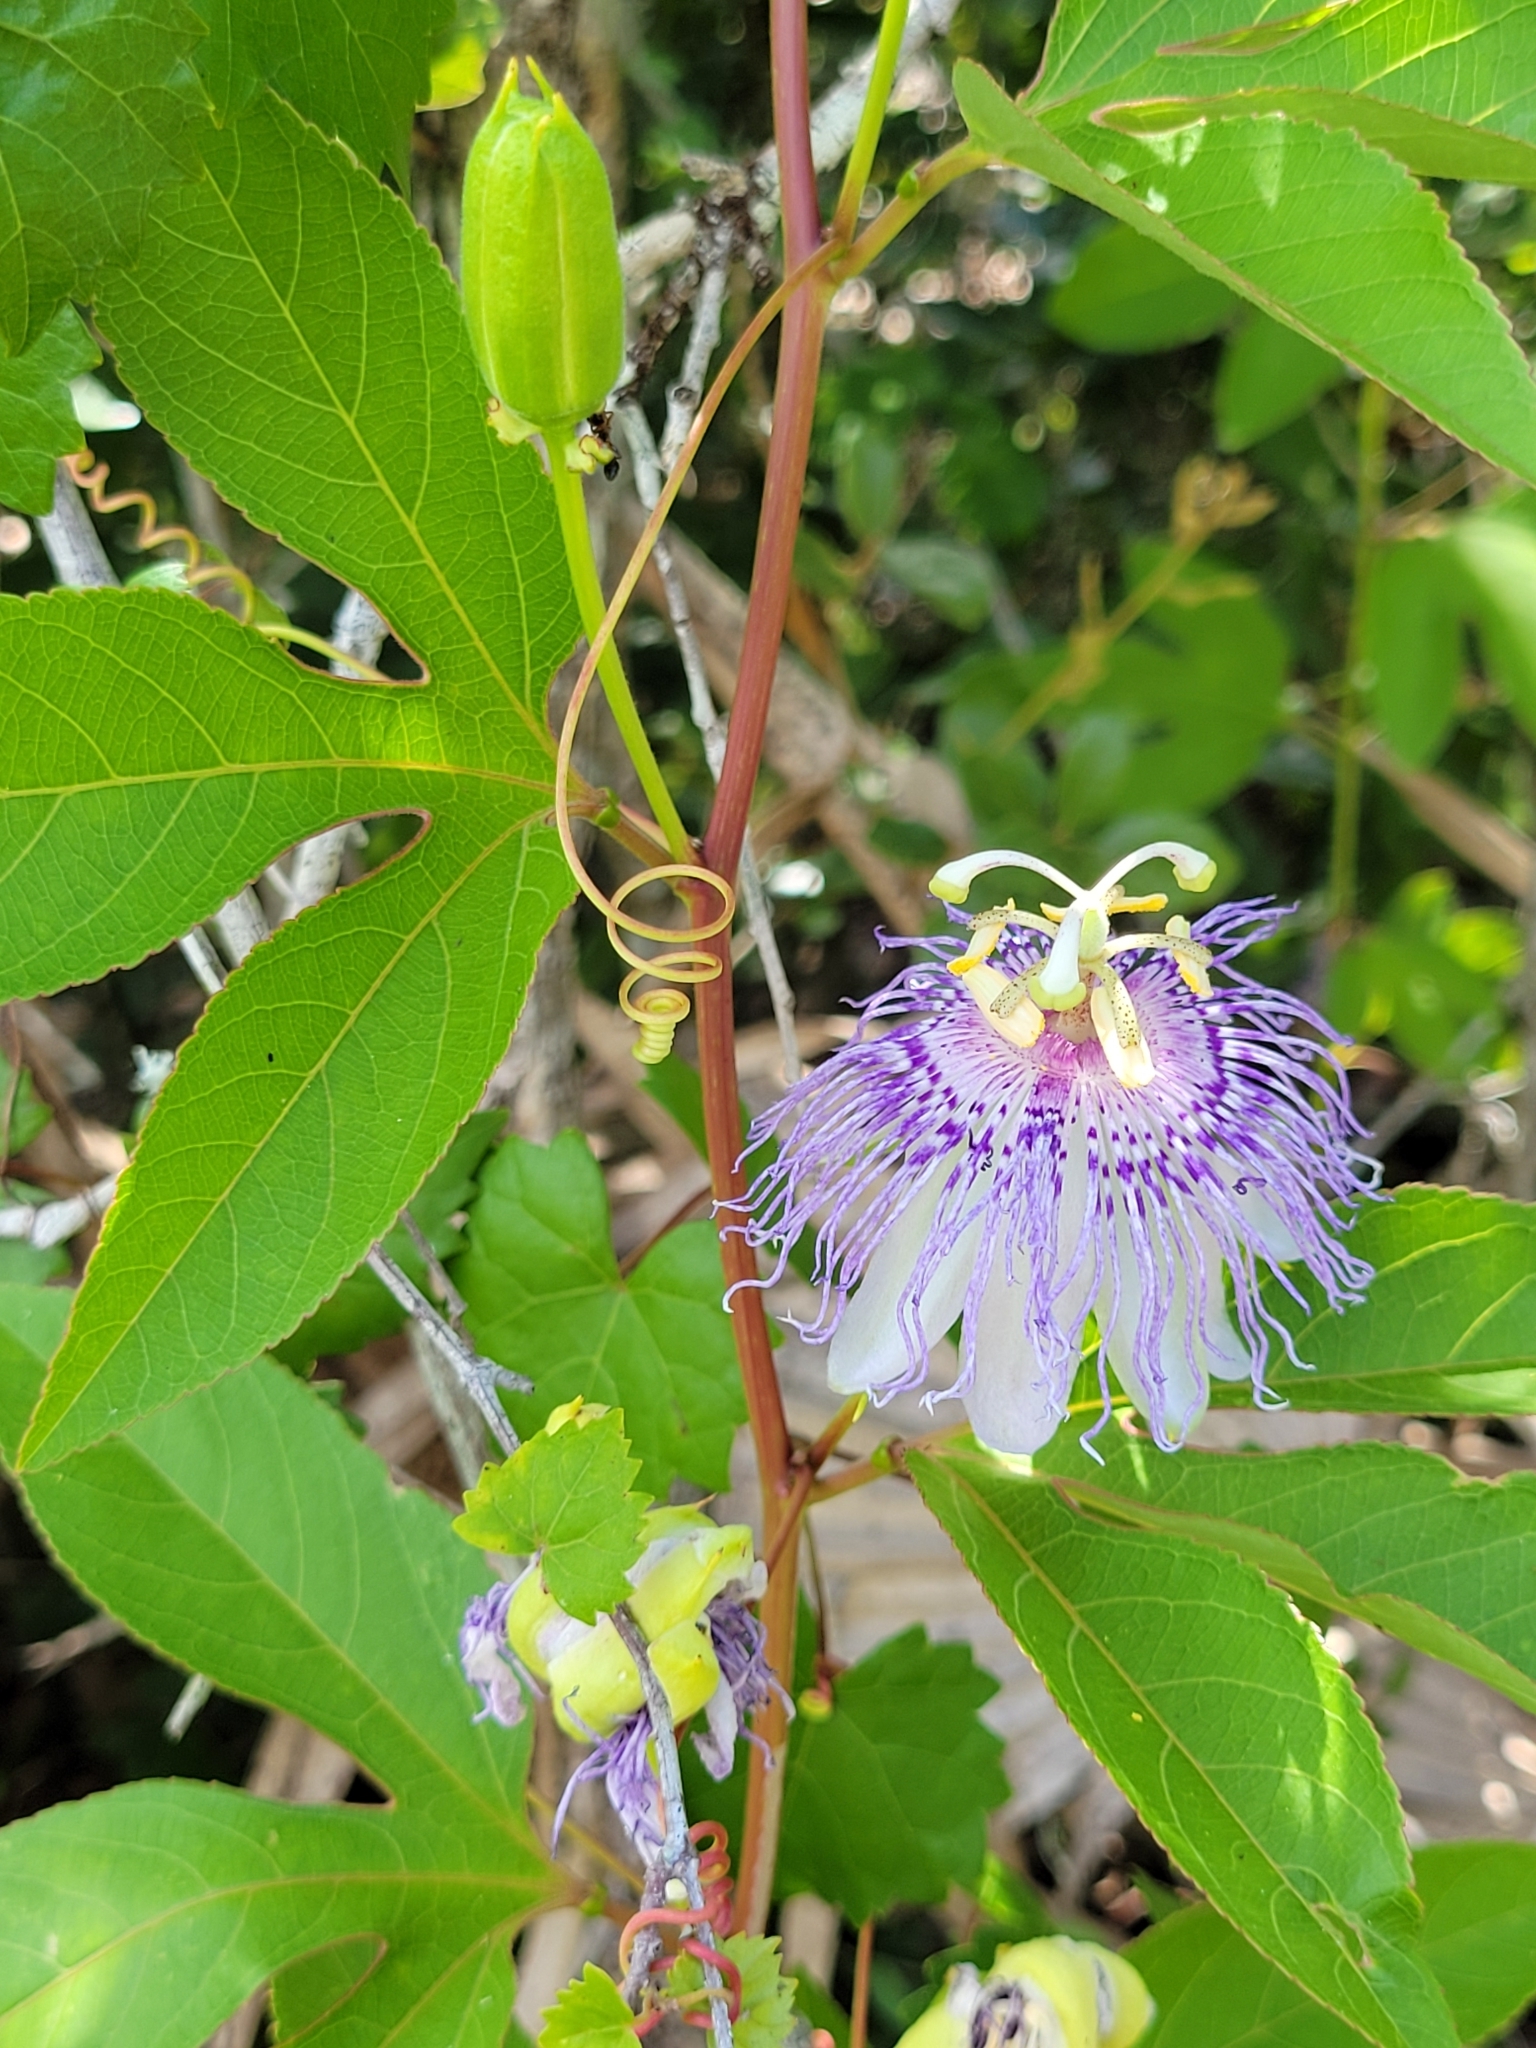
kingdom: Plantae
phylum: Tracheophyta
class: Magnoliopsida
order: Malpighiales
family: Passifloraceae
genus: Passiflora
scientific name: Passiflora incarnata
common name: Apricot-vine
